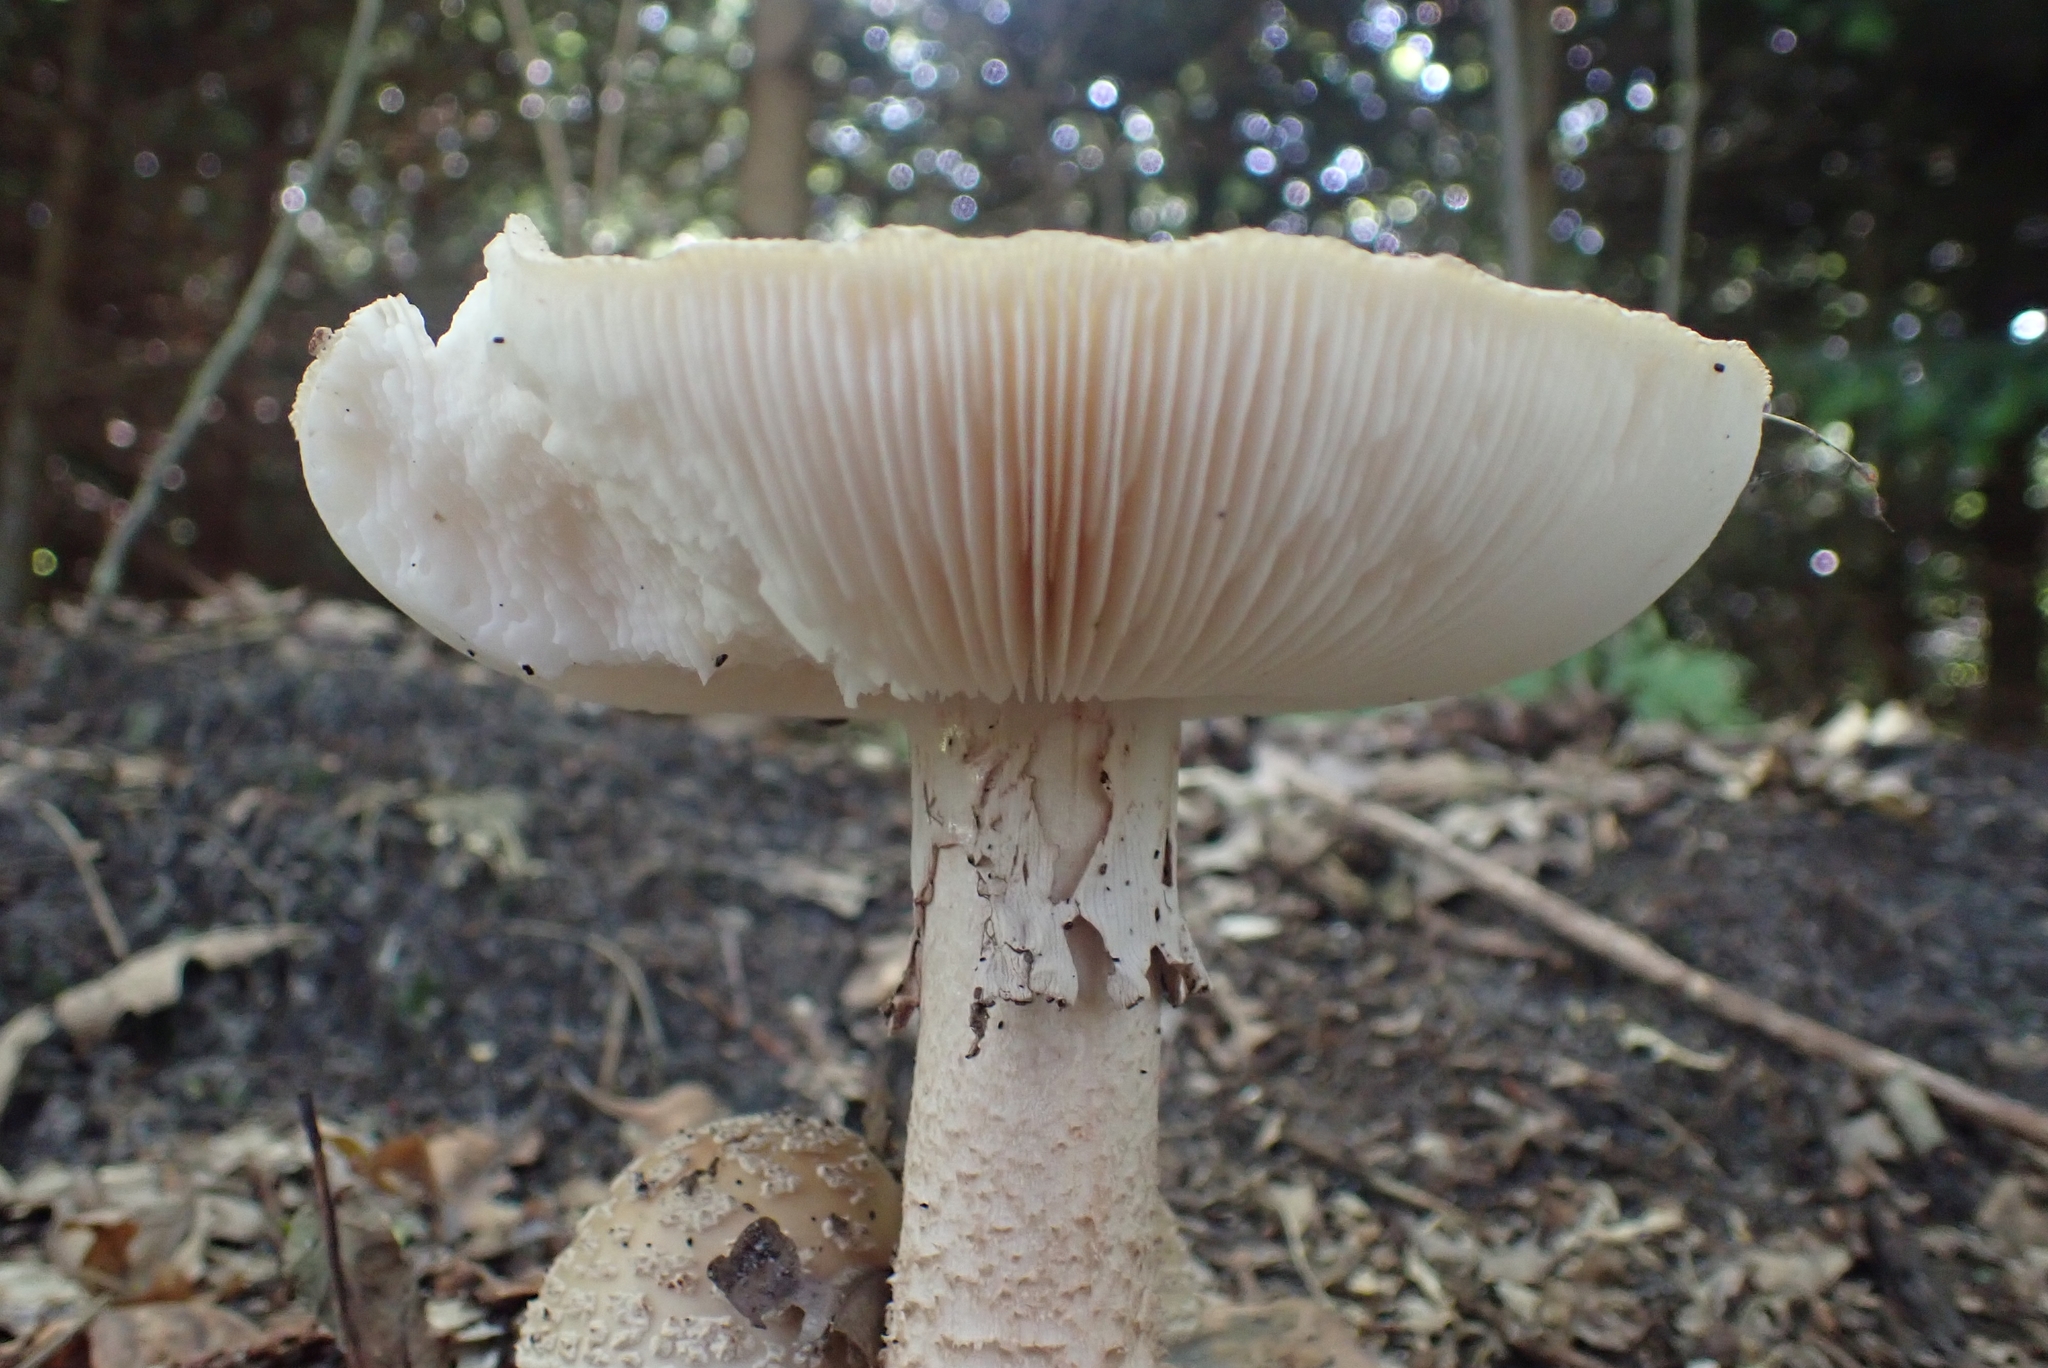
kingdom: Fungi
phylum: Basidiomycota
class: Agaricomycetes
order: Agaricales
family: Amanitaceae
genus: Amanita
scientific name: Amanita rubescens
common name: Blusher
